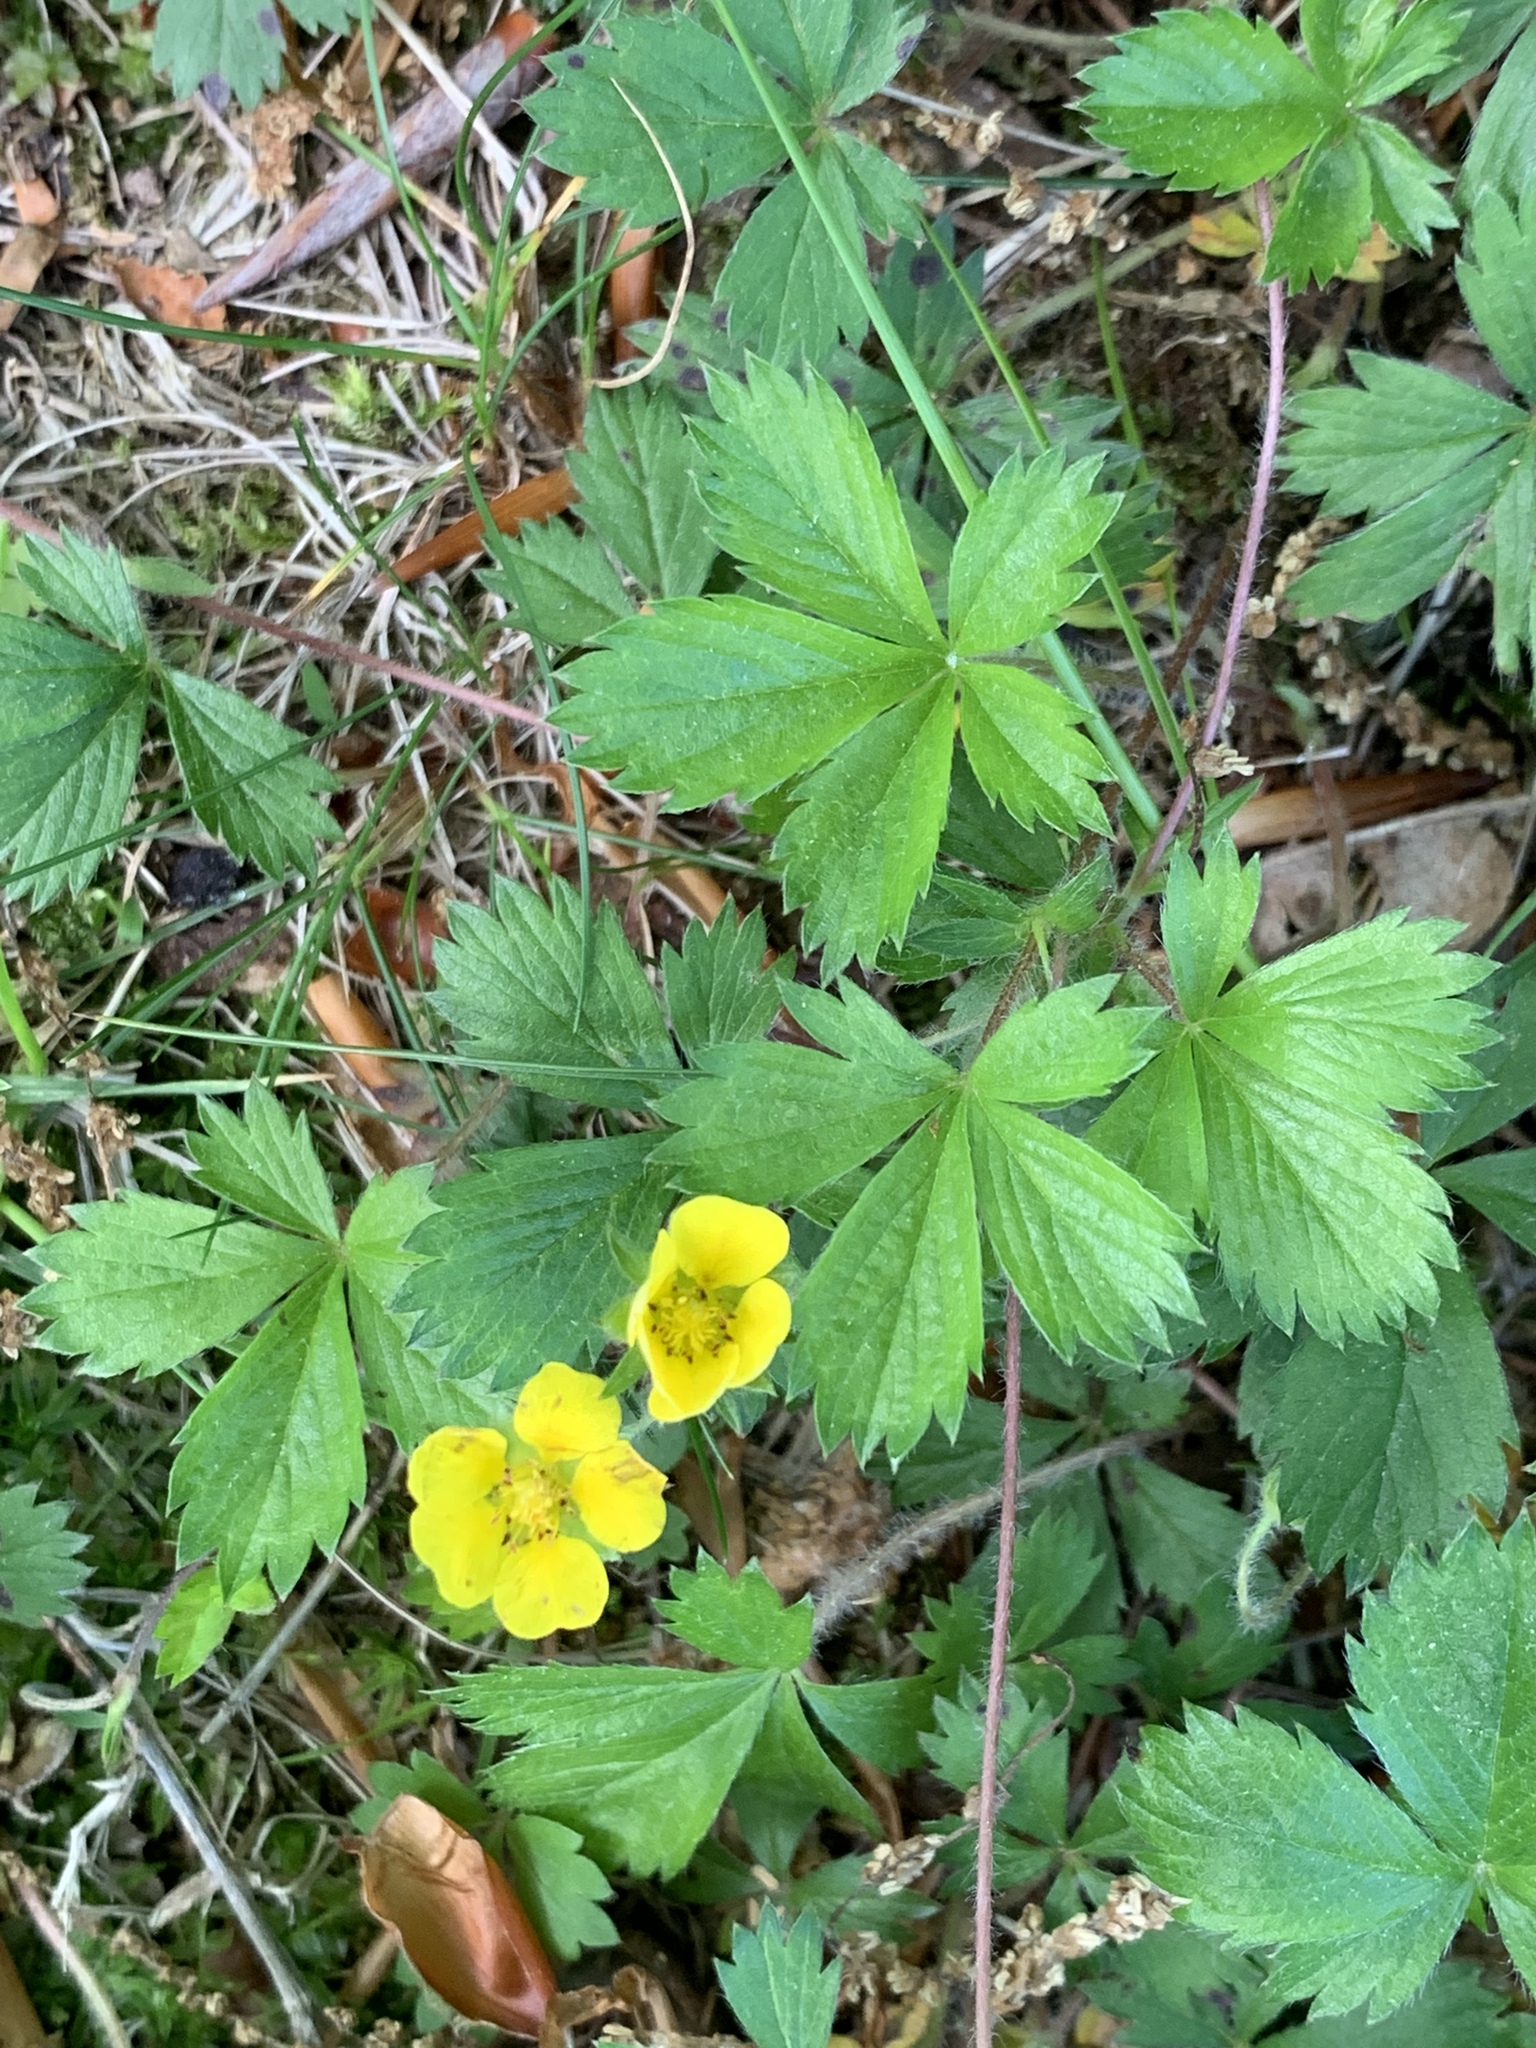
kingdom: Plantae
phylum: Tracheophyta
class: Magnoliopsida
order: Rosales
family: Rosaceae
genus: Potentilla
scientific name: Potentilla canadensis
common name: Canada cinquefoil
